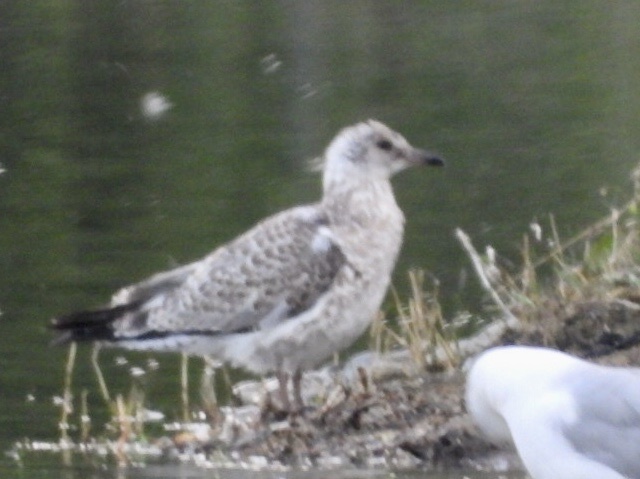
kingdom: Animalia
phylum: Chordata
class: Aves
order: Charadriiformes
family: Laridae
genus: Larus
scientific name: Larus delawarensis
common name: Ring-billed gull
